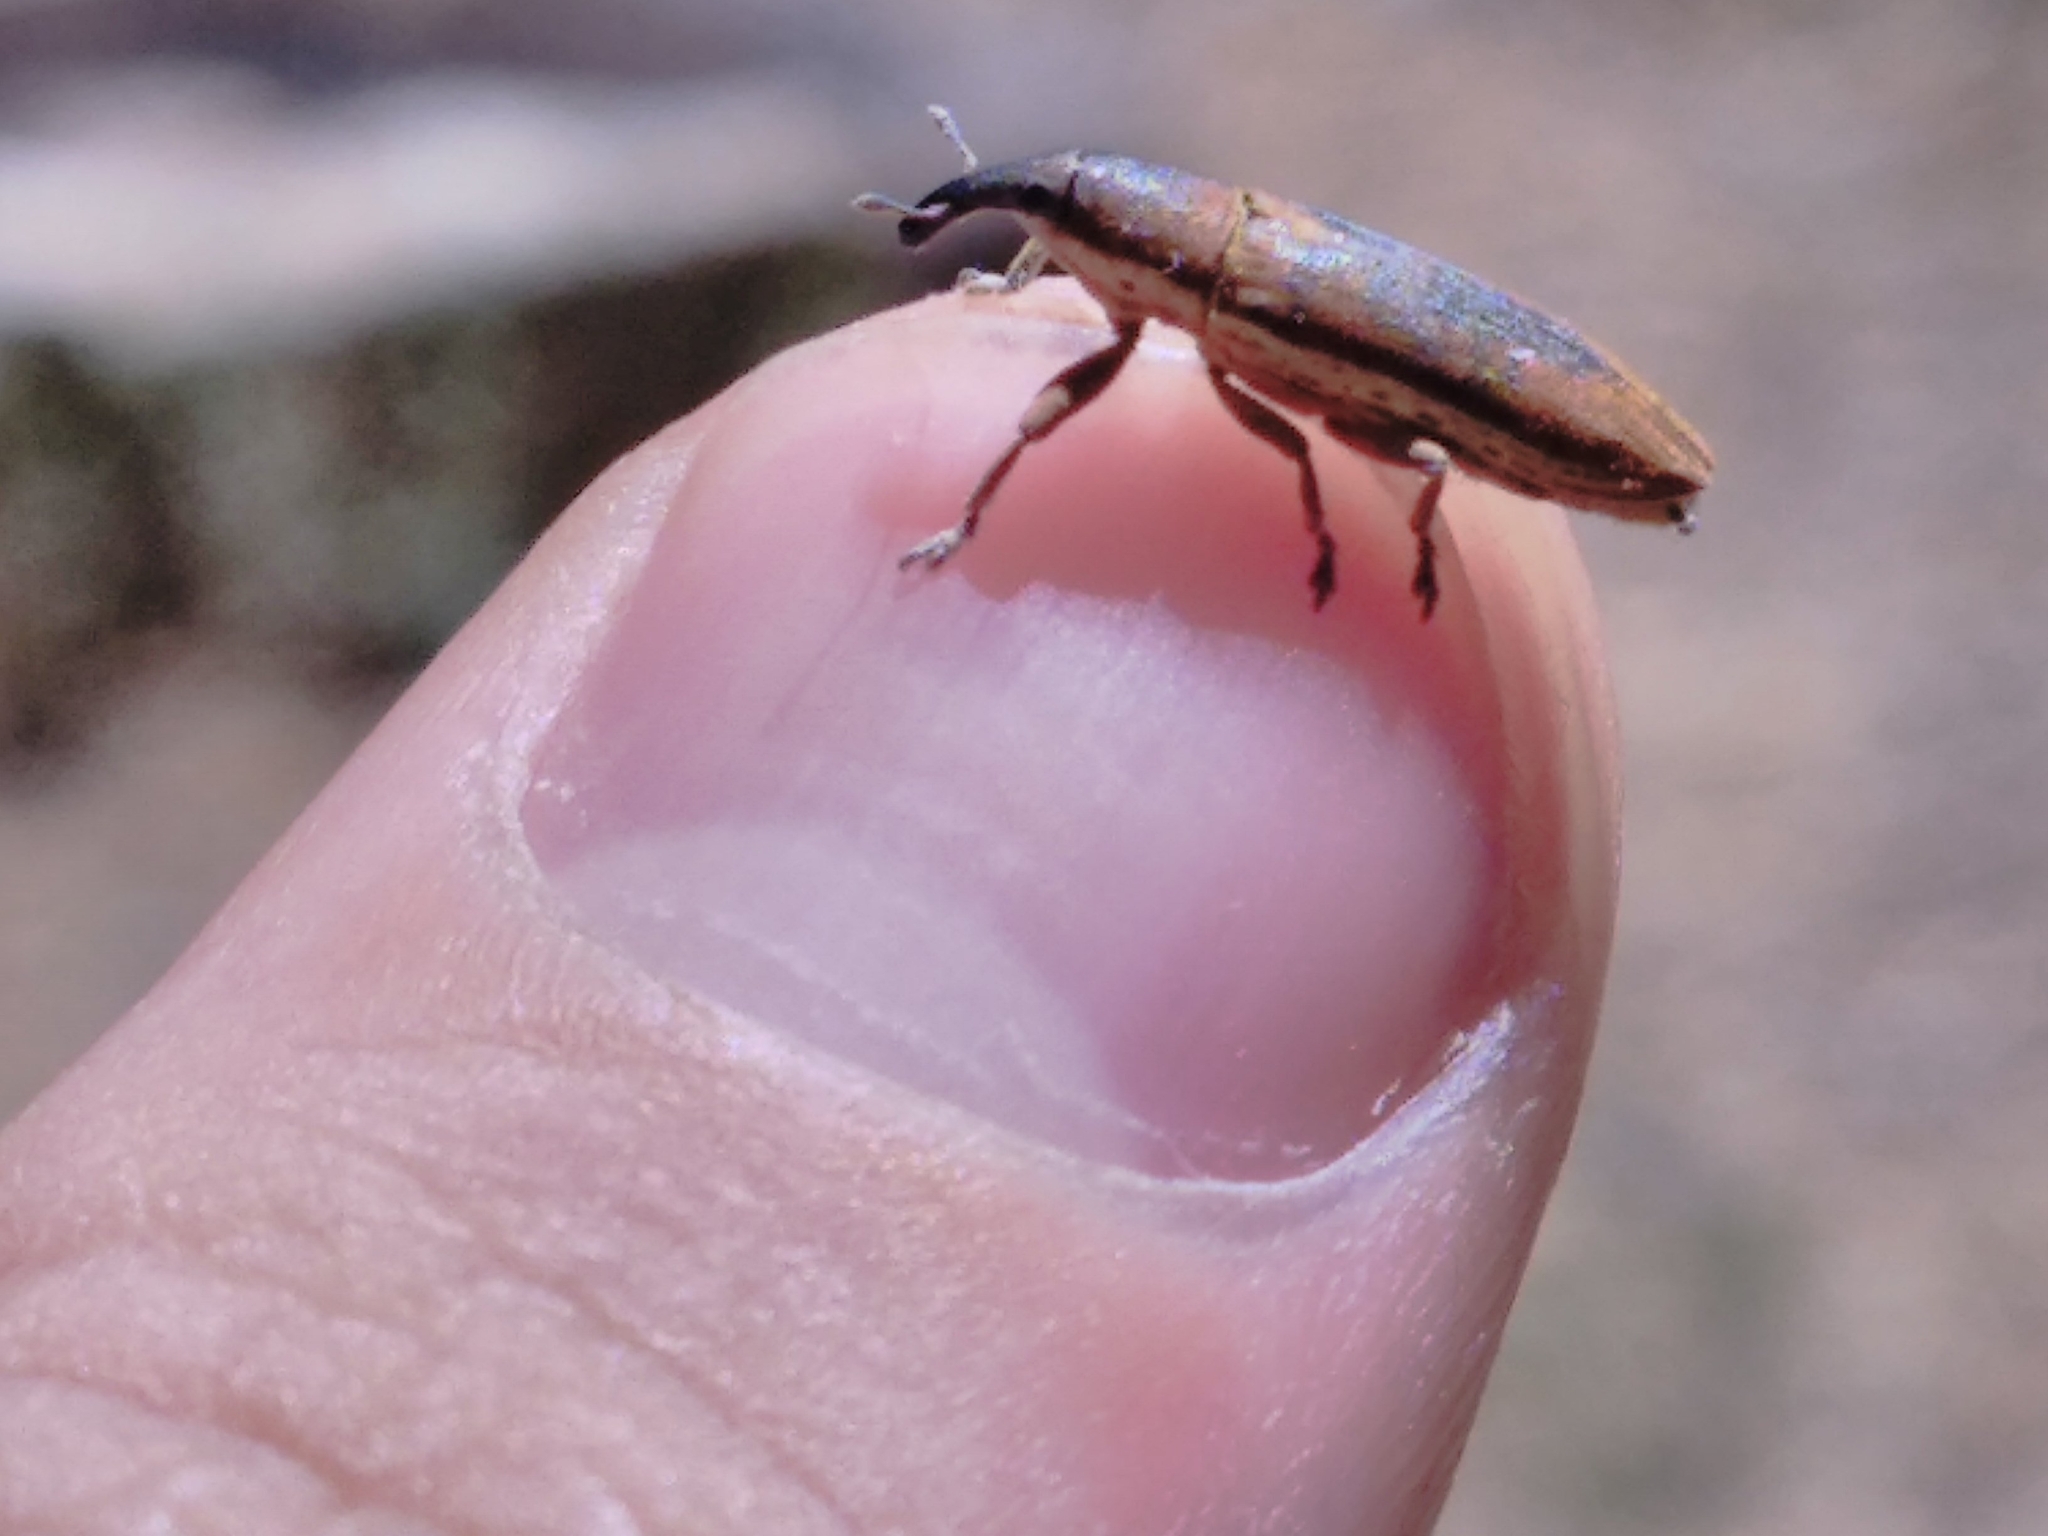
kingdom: Animalia
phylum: Arthropoda
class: Insecta
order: Coleoptera
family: Curculionidae
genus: Lixus
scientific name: Lixus juncii
